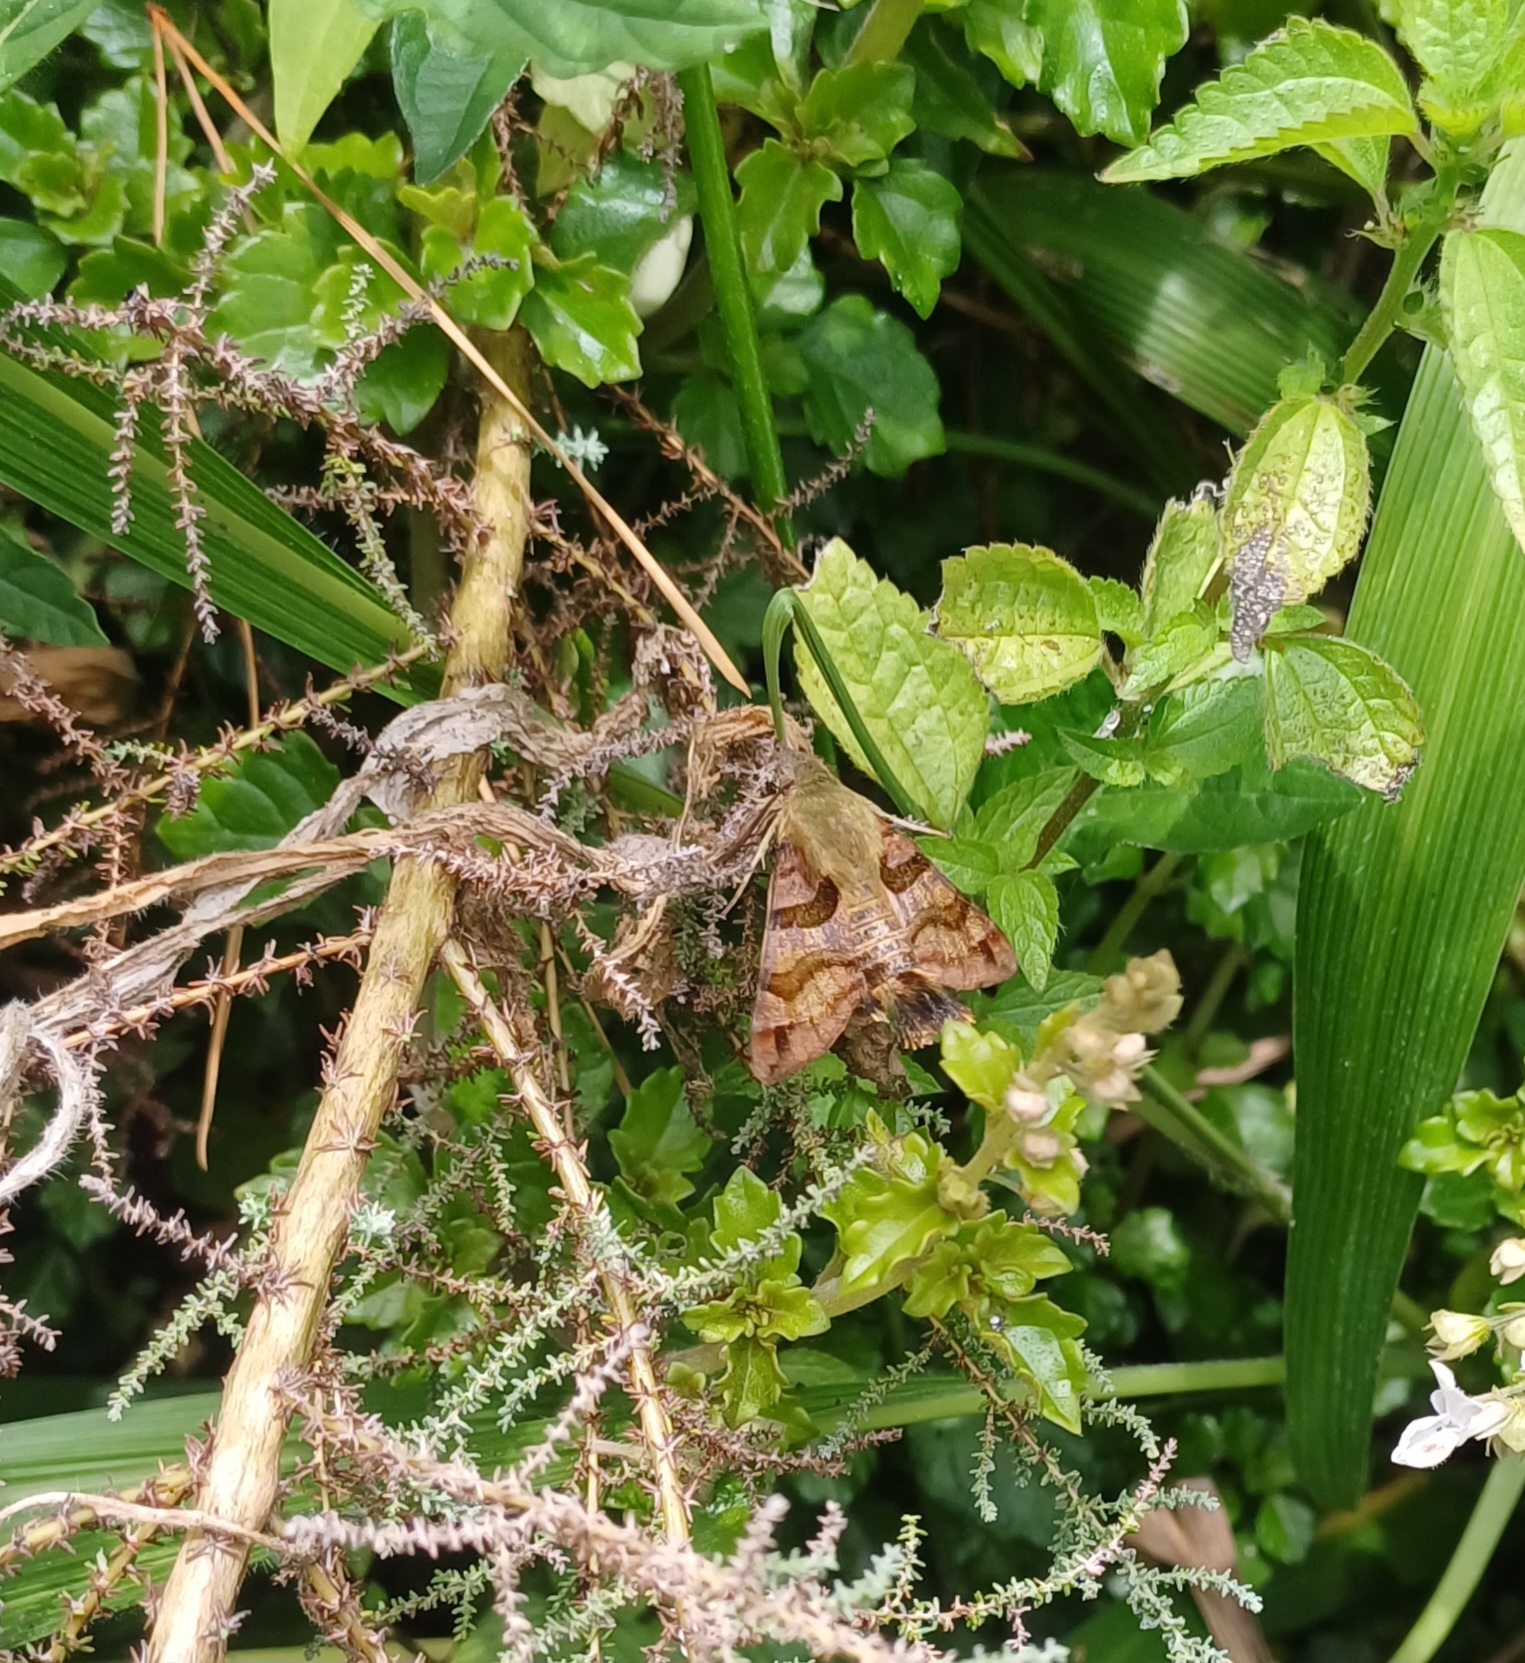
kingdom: Animalia
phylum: Arthropoda
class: Insecta
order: Lepidoptera
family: Sphingidae
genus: Macroglossum
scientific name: Macroglossum trochilus
